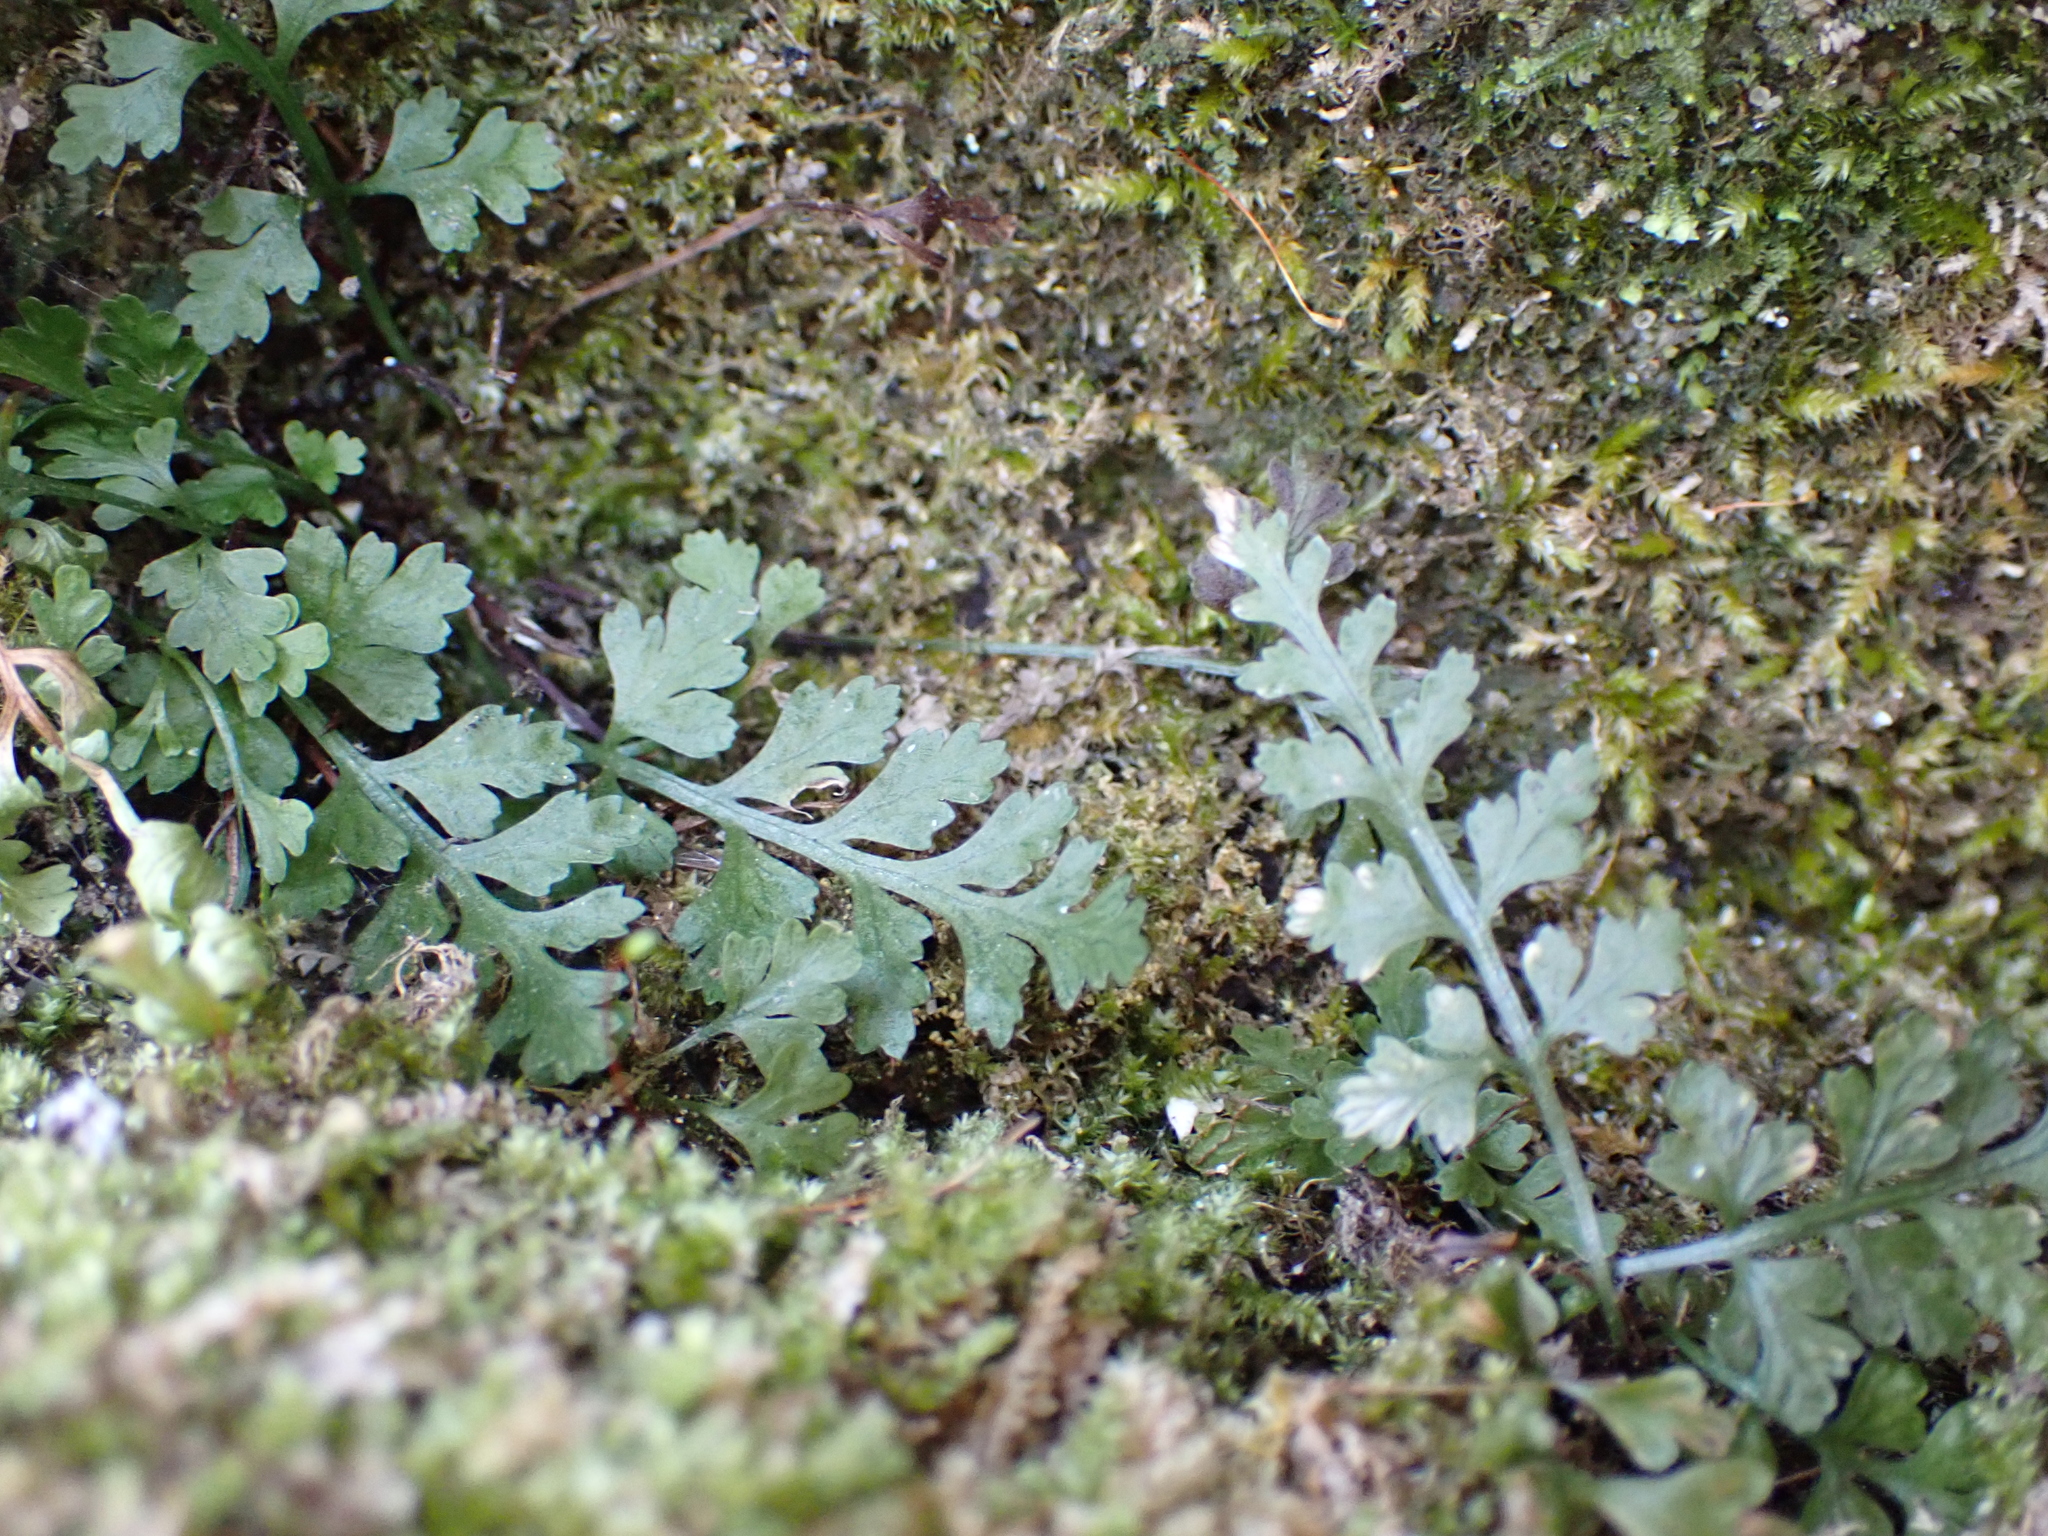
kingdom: Plantae
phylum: Tracheophyta
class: Polypodiopsida
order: Polypodiales
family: Aspleniaceae
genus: Asplenium
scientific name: Asplenium montanum
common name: Mountain spleenwort
